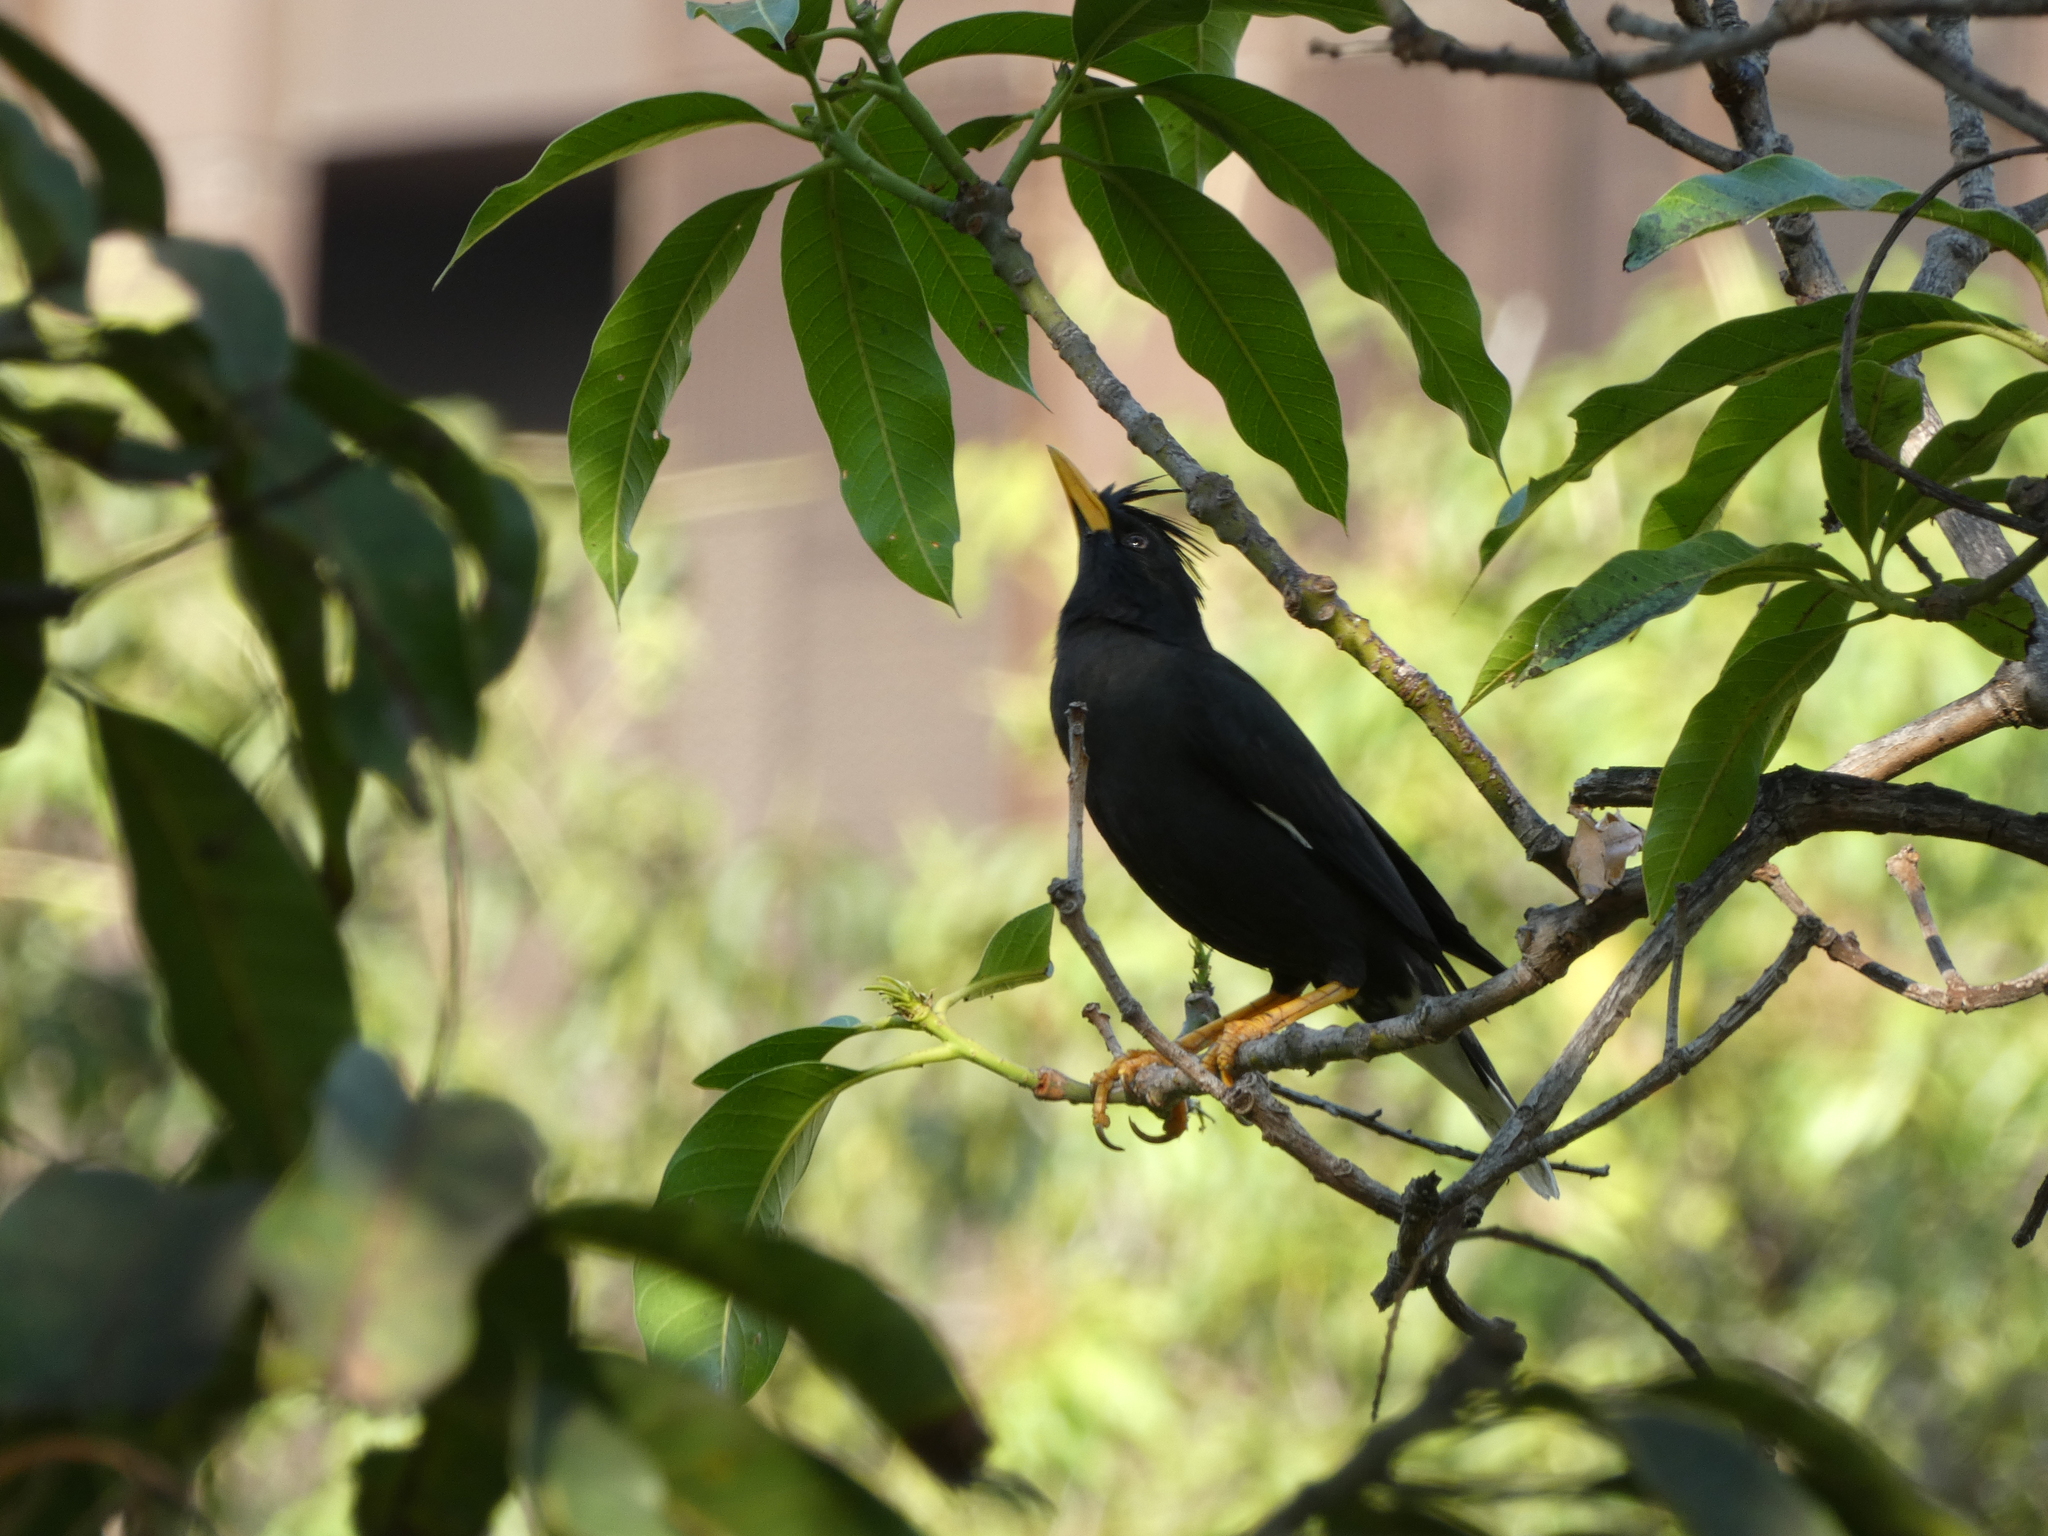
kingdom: Animalia
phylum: Chordata
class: Aves
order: Passeriformes
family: Sturnidae
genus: Acridotheres
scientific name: Acridotheres grandis
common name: Great myna
